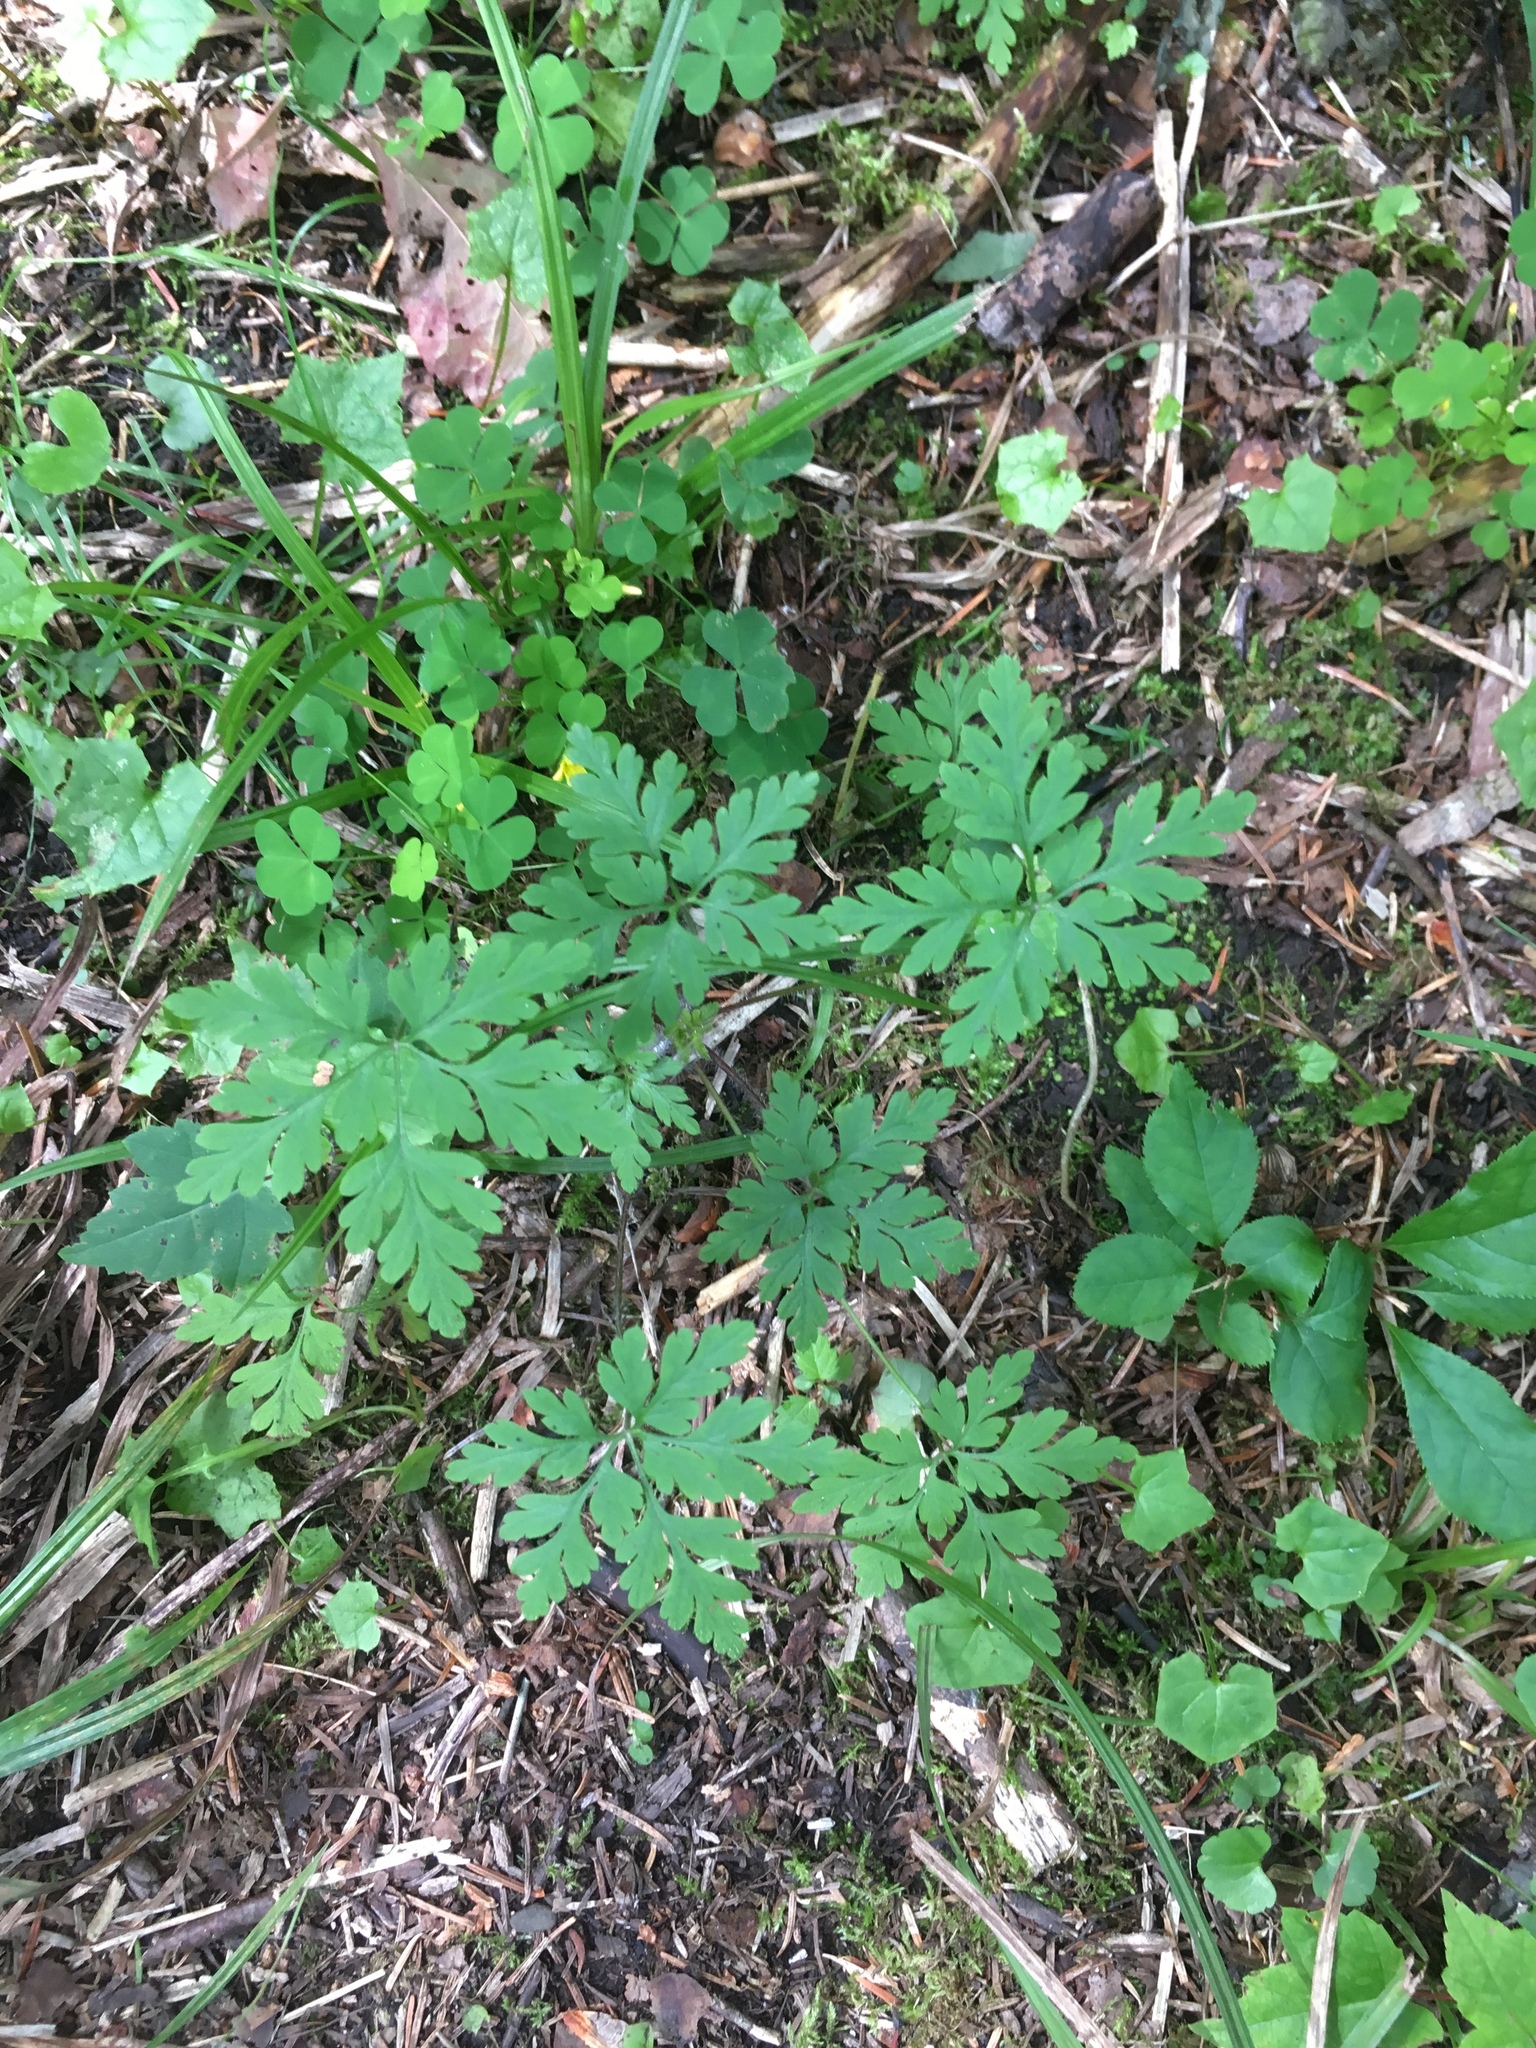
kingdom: Plantae
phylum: Tracheophyta
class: Magnoliopsida
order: Geraniales
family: Geraniaceae
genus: Geranium
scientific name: Geranium robertianum
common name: Herb-robert
